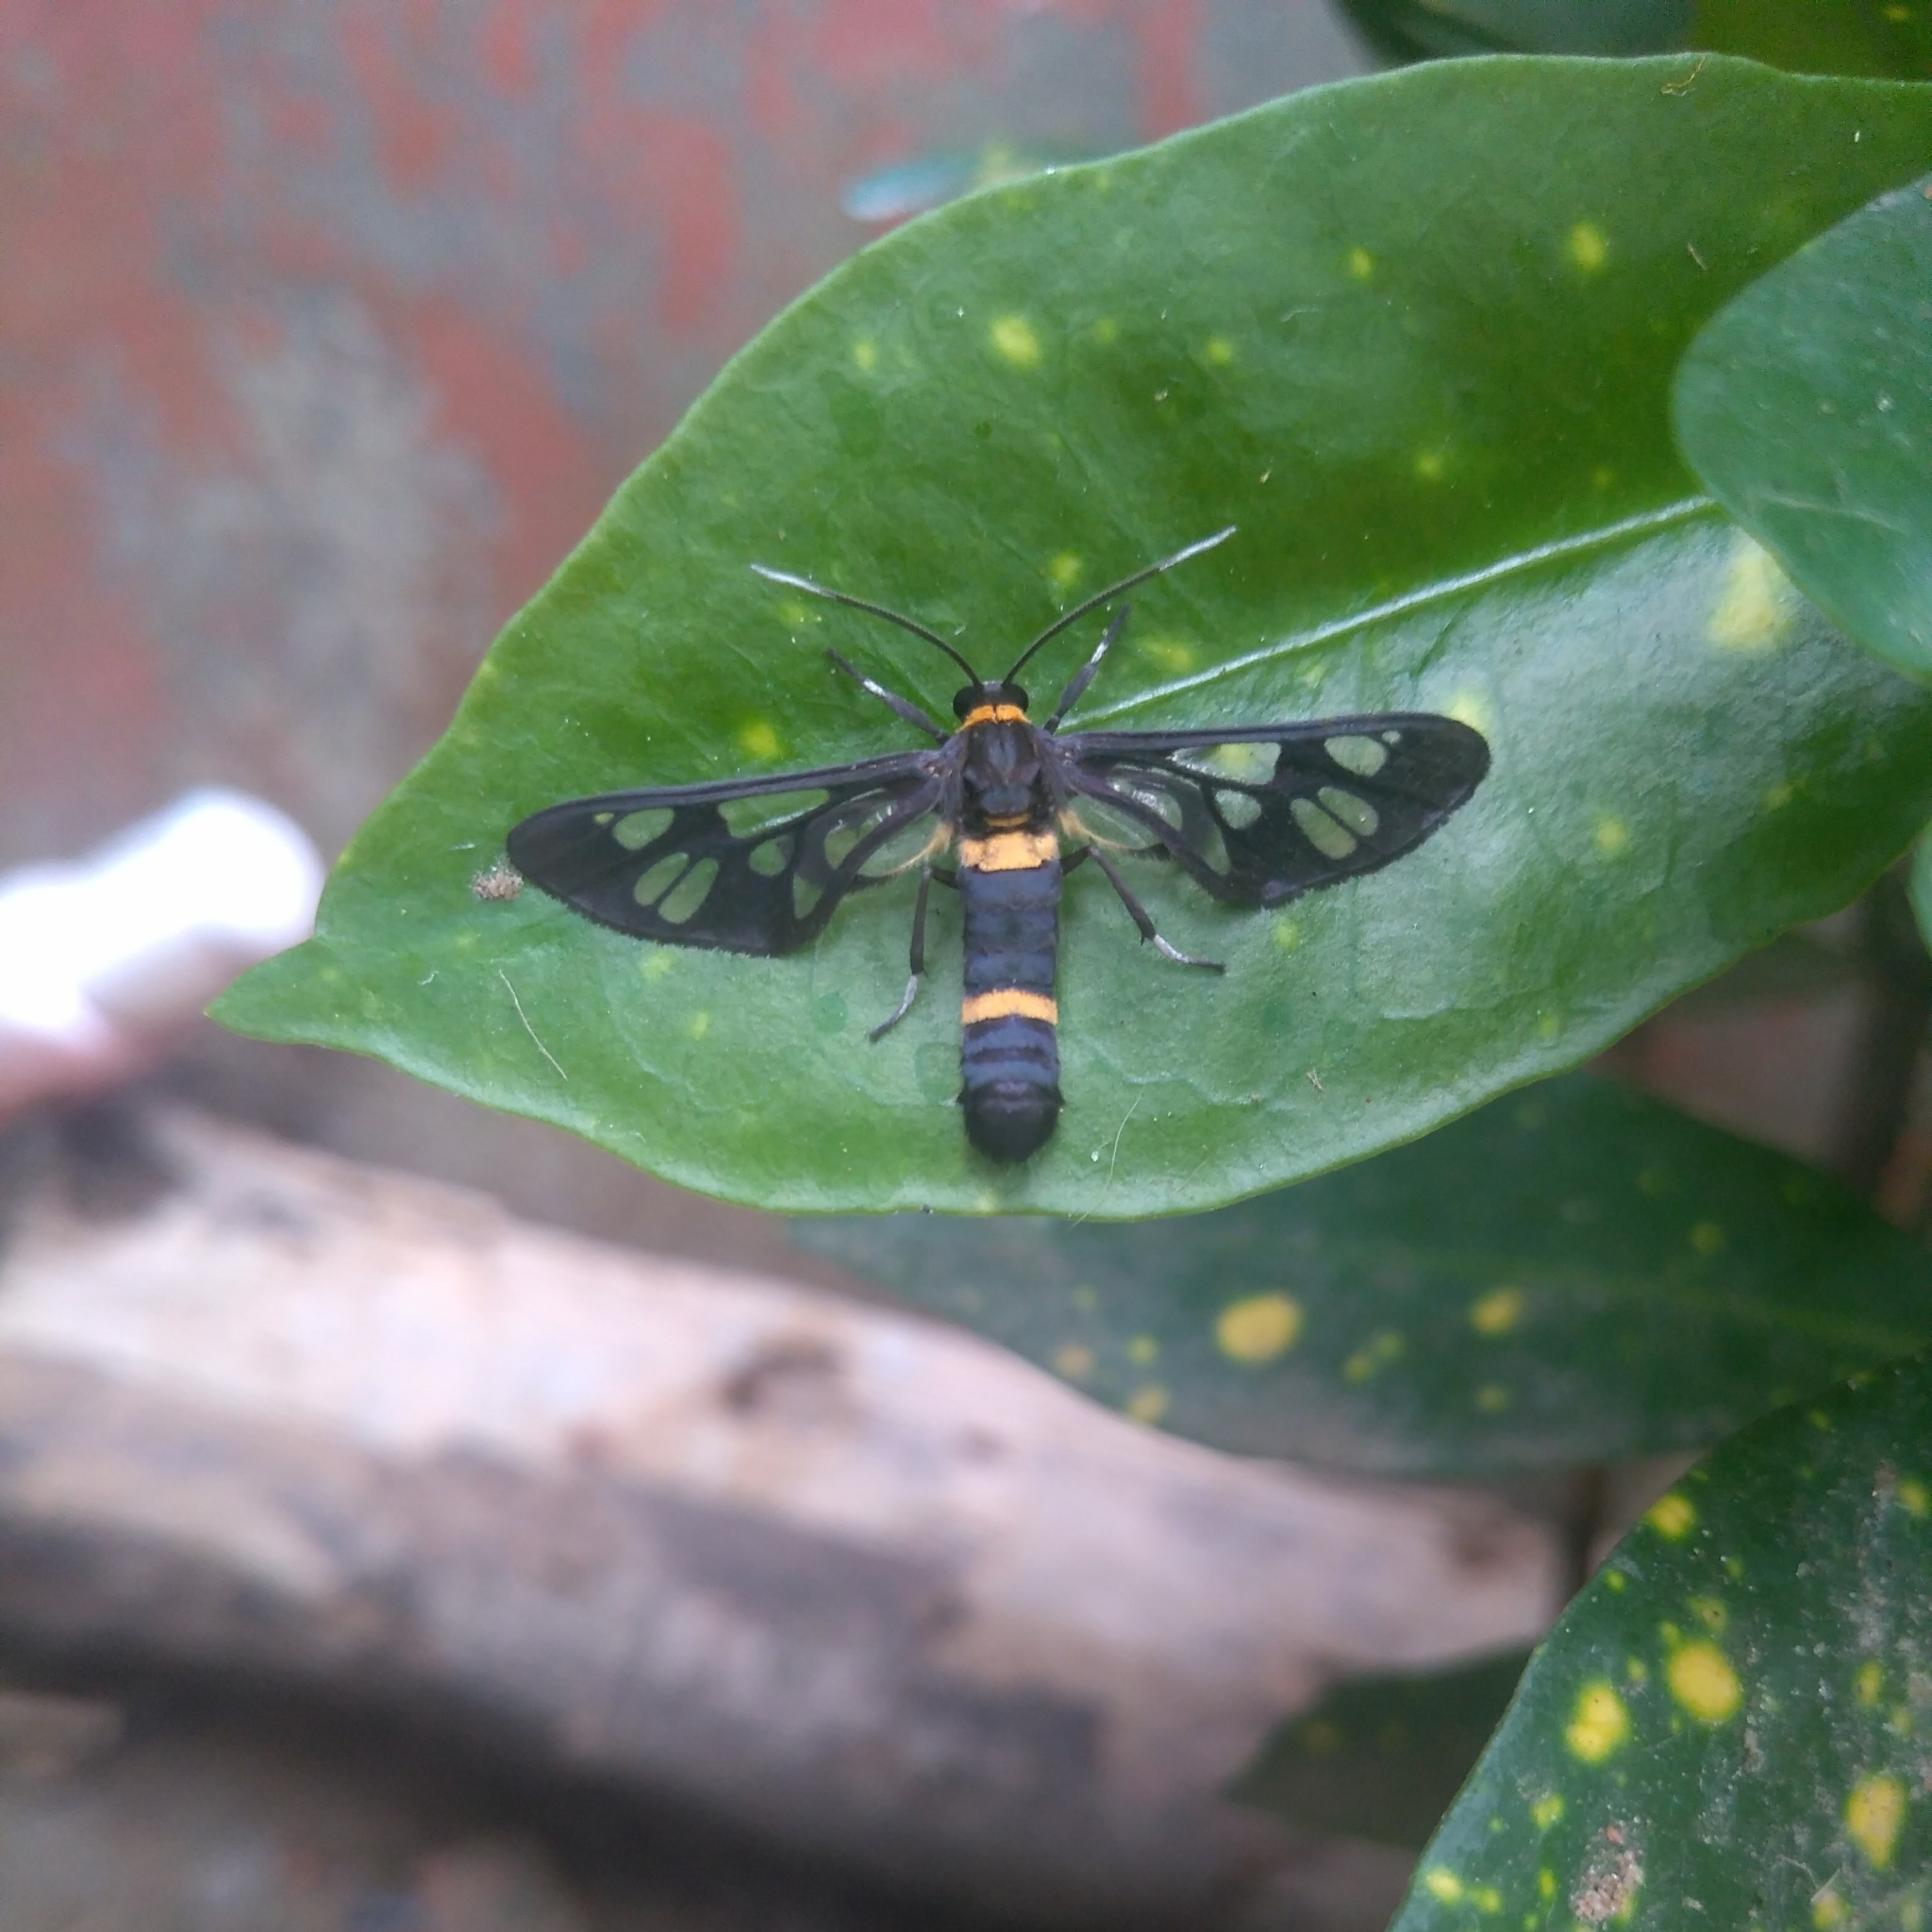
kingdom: Animalia
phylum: Arthropoda
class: Insecta
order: Lepidoptera
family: Erebidae
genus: Syntomoides
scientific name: Syntomoides imaon
